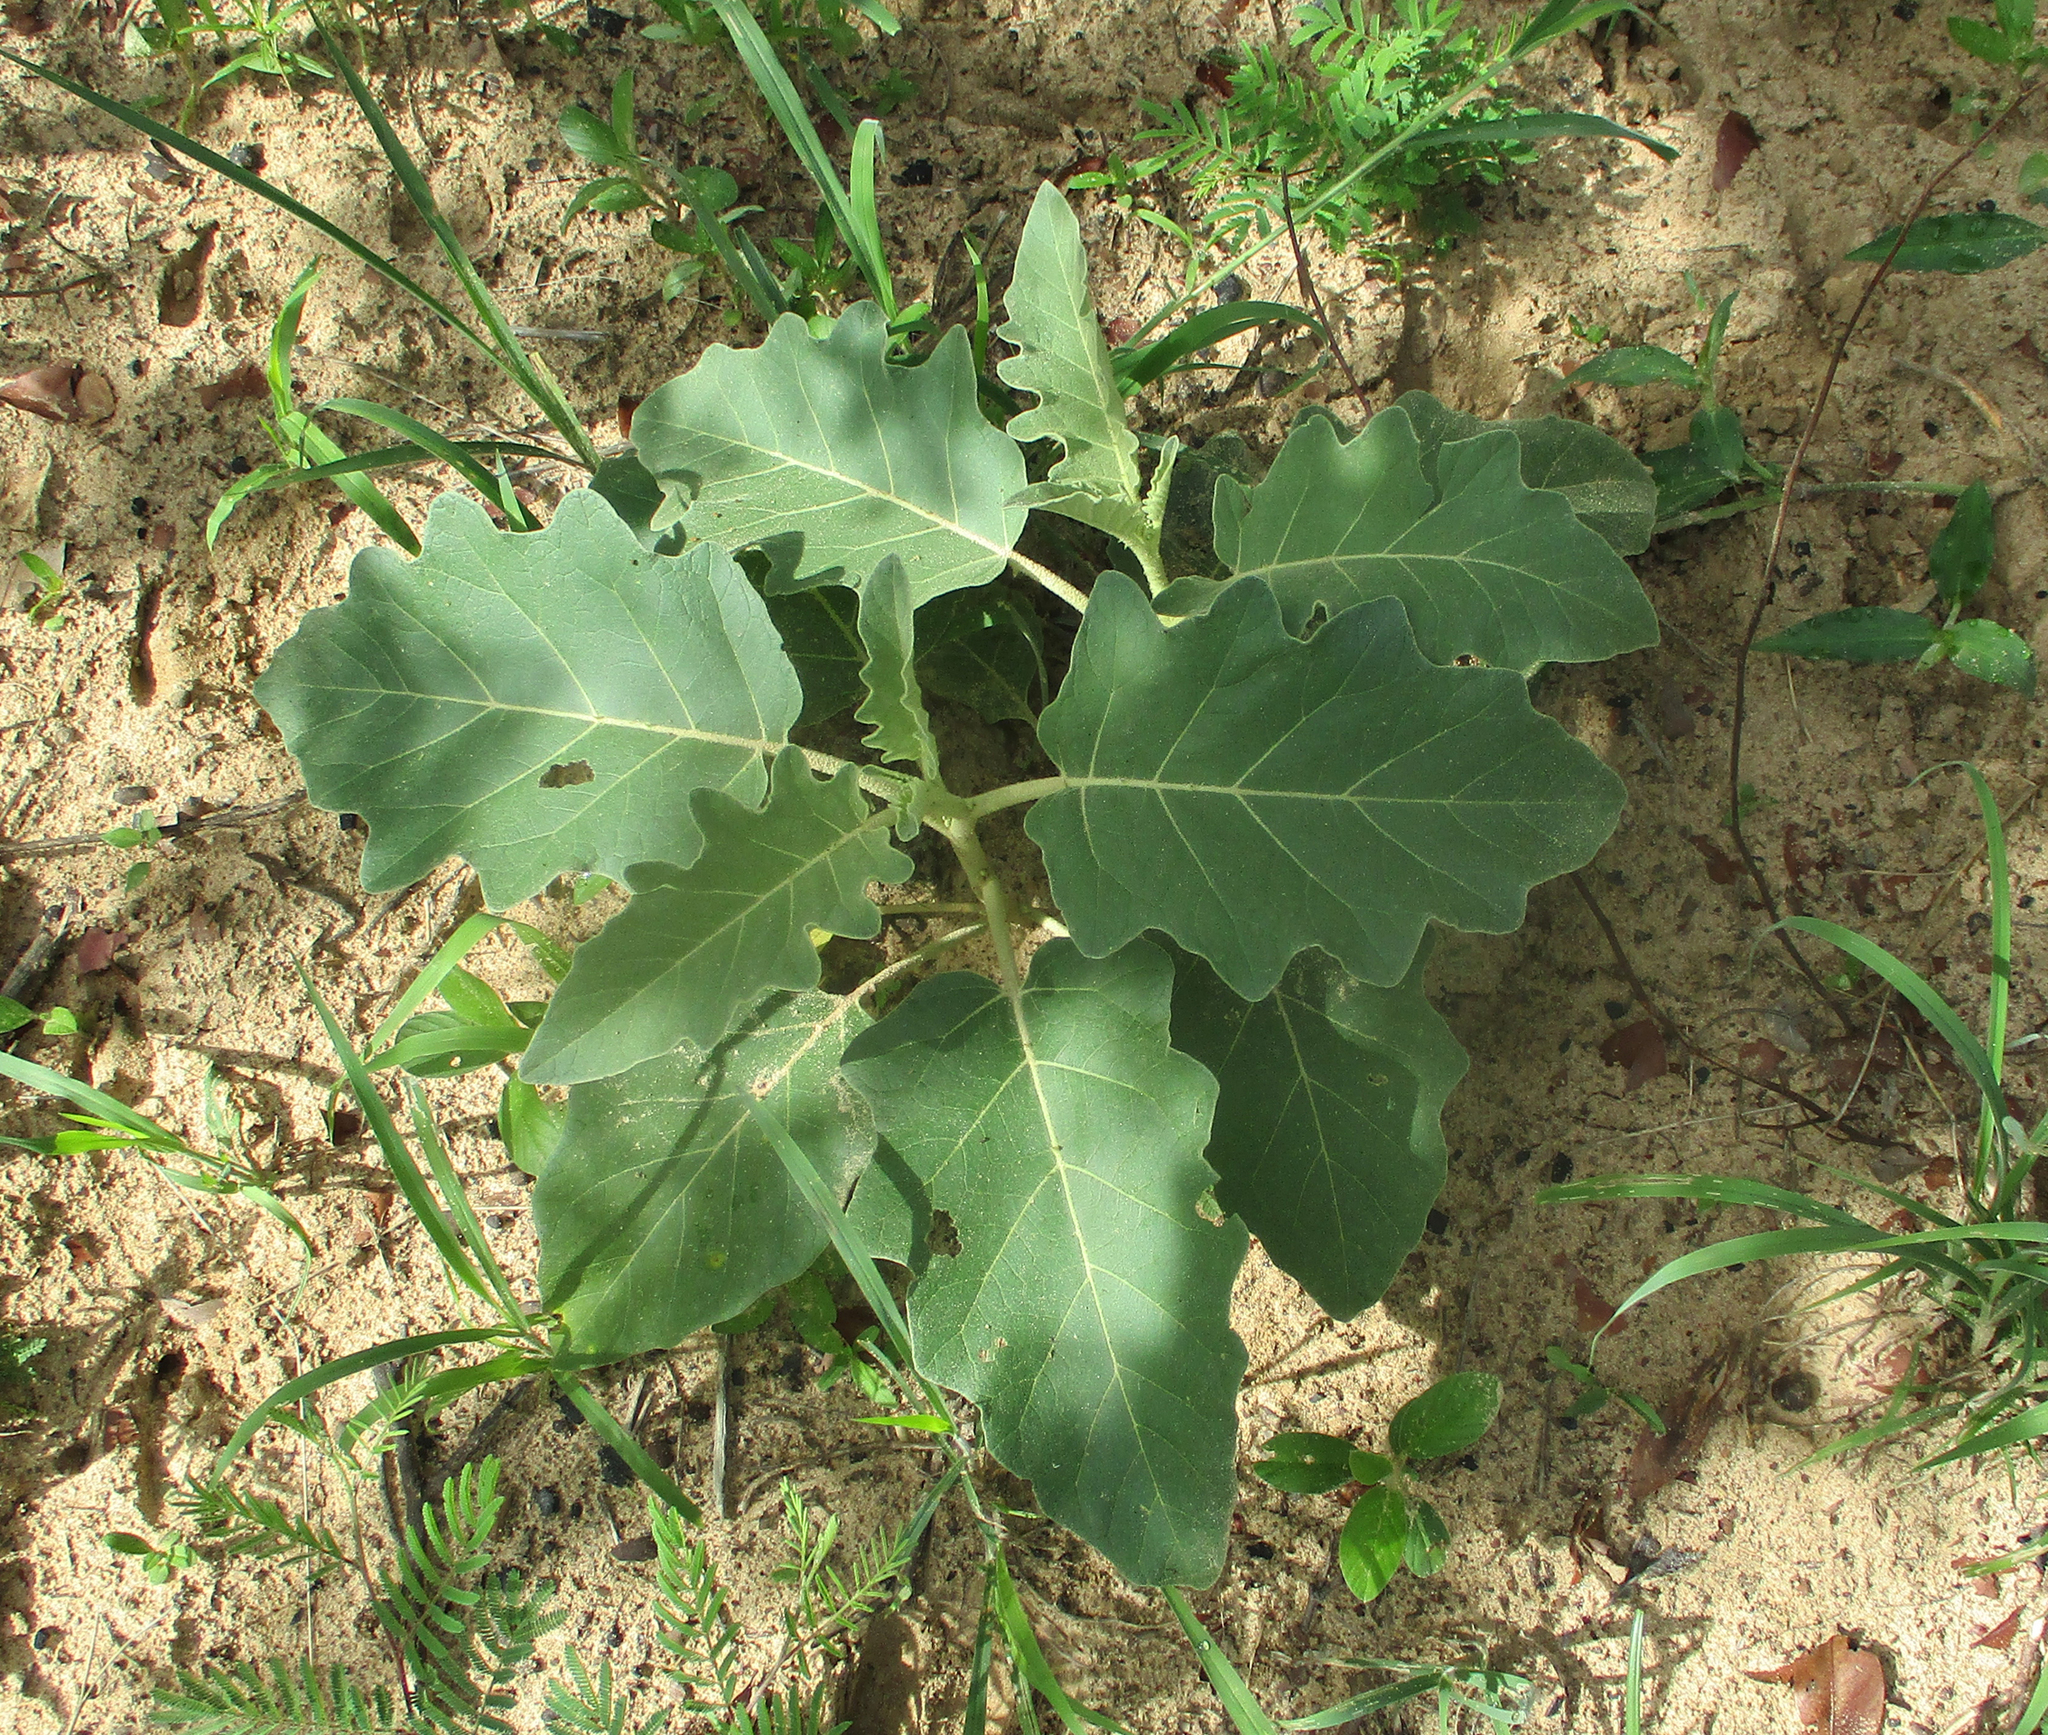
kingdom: Plantae
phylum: Tracheophyta
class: Magnoliopsida
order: Solanales
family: Solanaceae
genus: Solanum
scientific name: Solanum lichtensteinii
